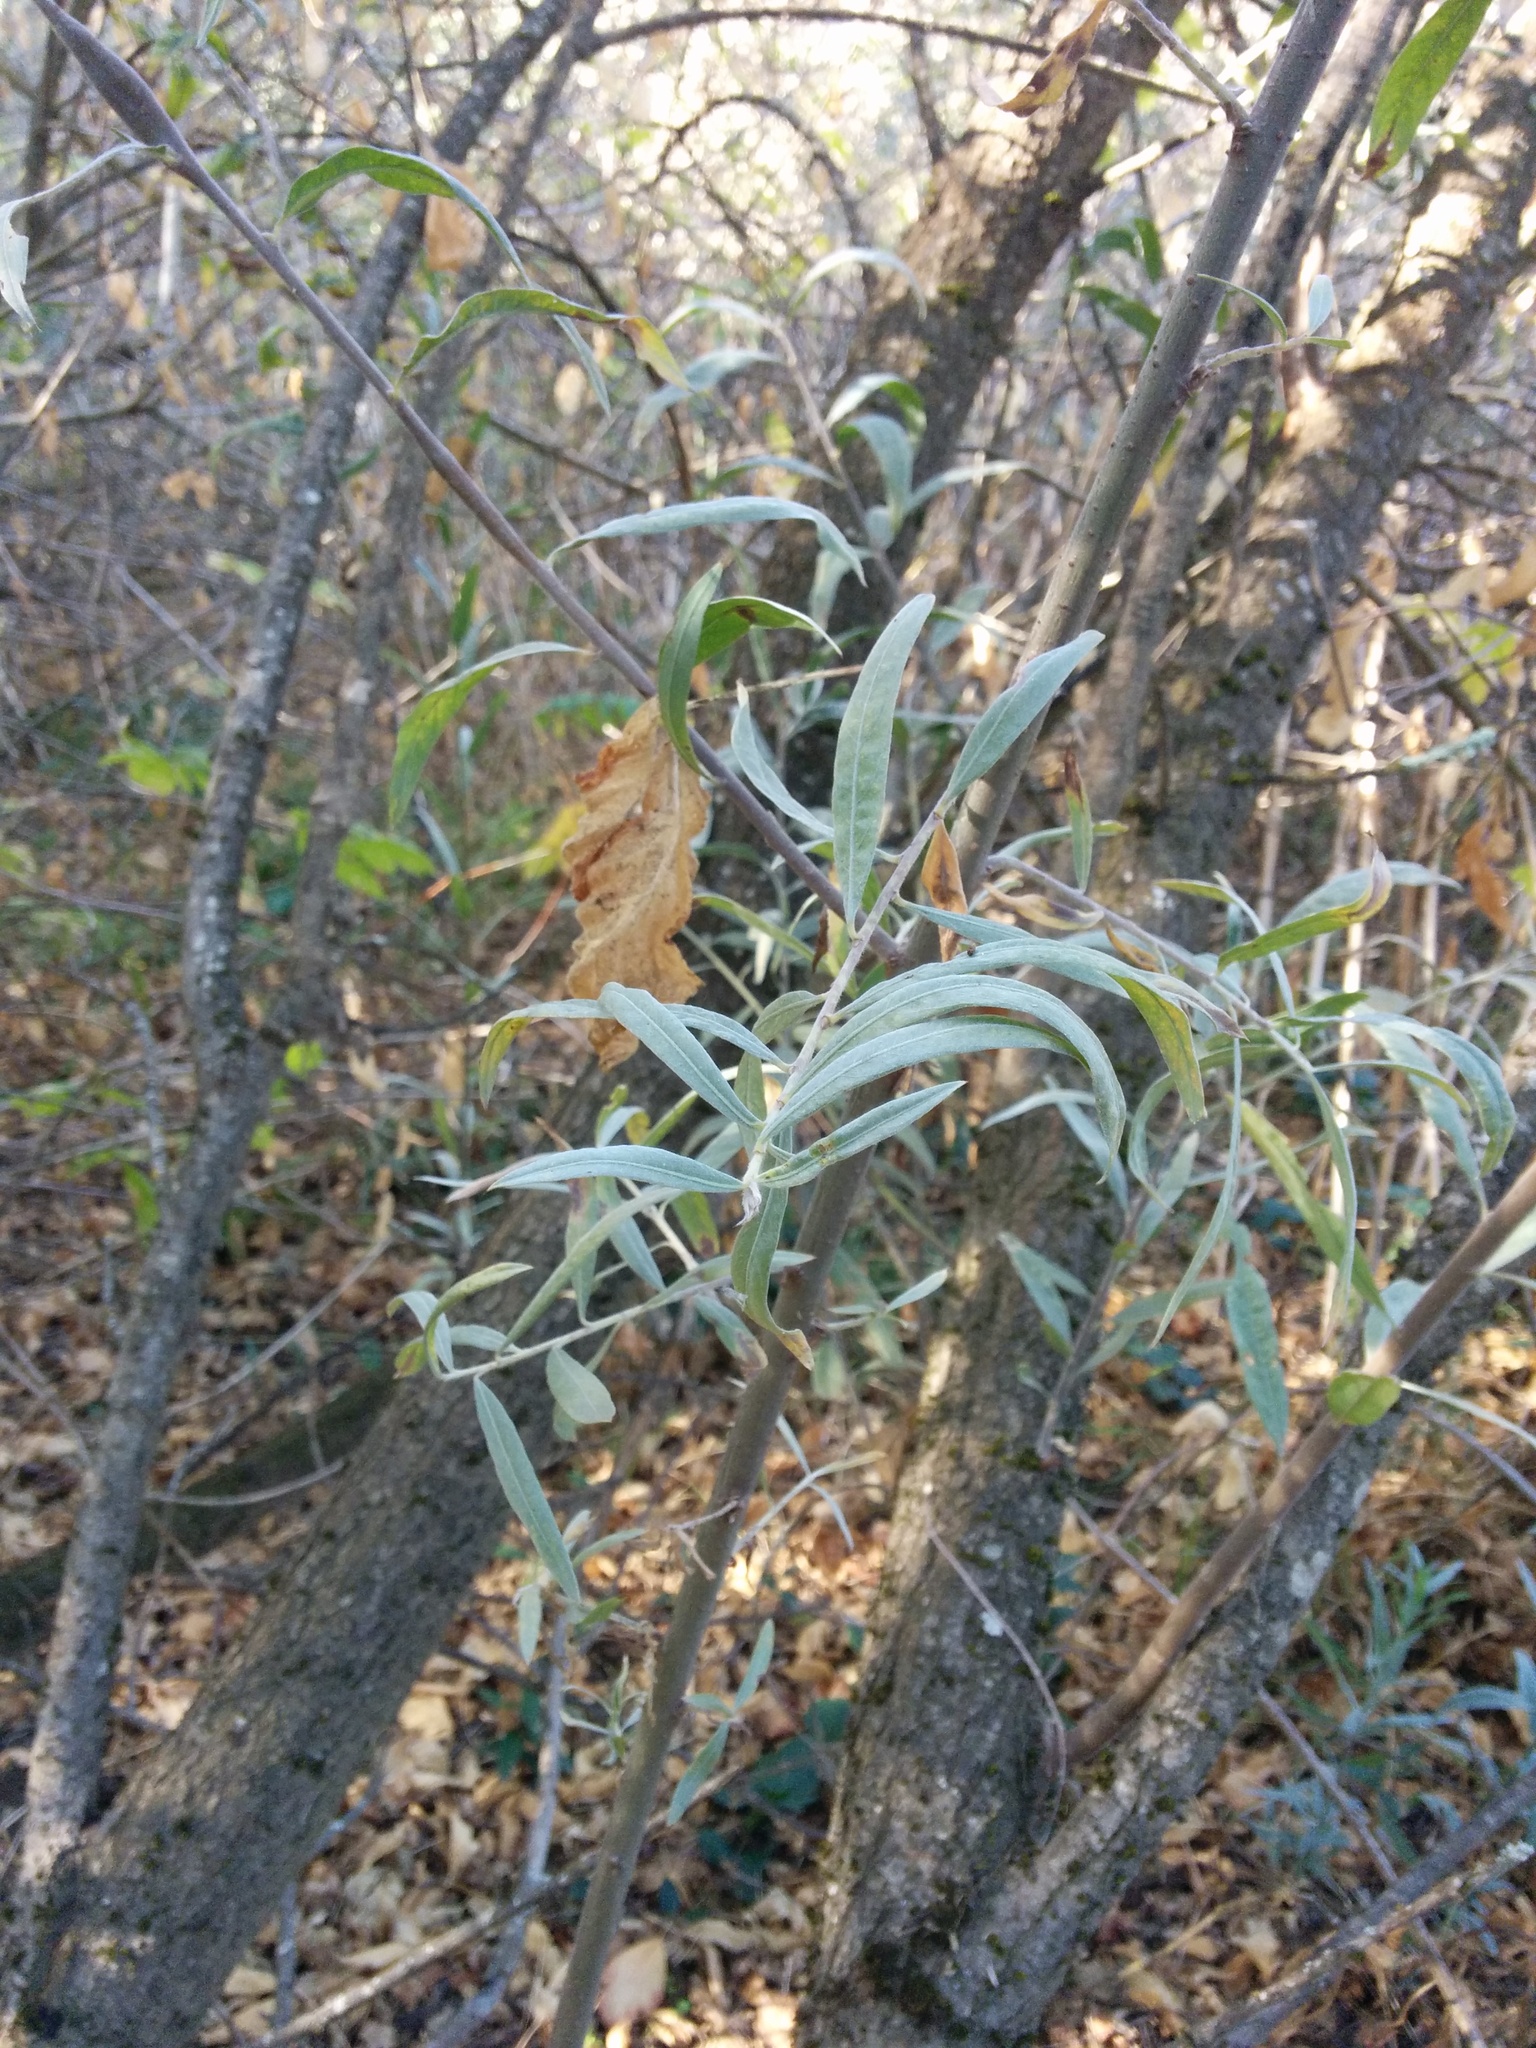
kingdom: Plantae
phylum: Tracheophyta
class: Magnoliopsida
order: Malpighiales
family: Salicaceae
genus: Salix
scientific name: Salix exigua
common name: Coyote willow
